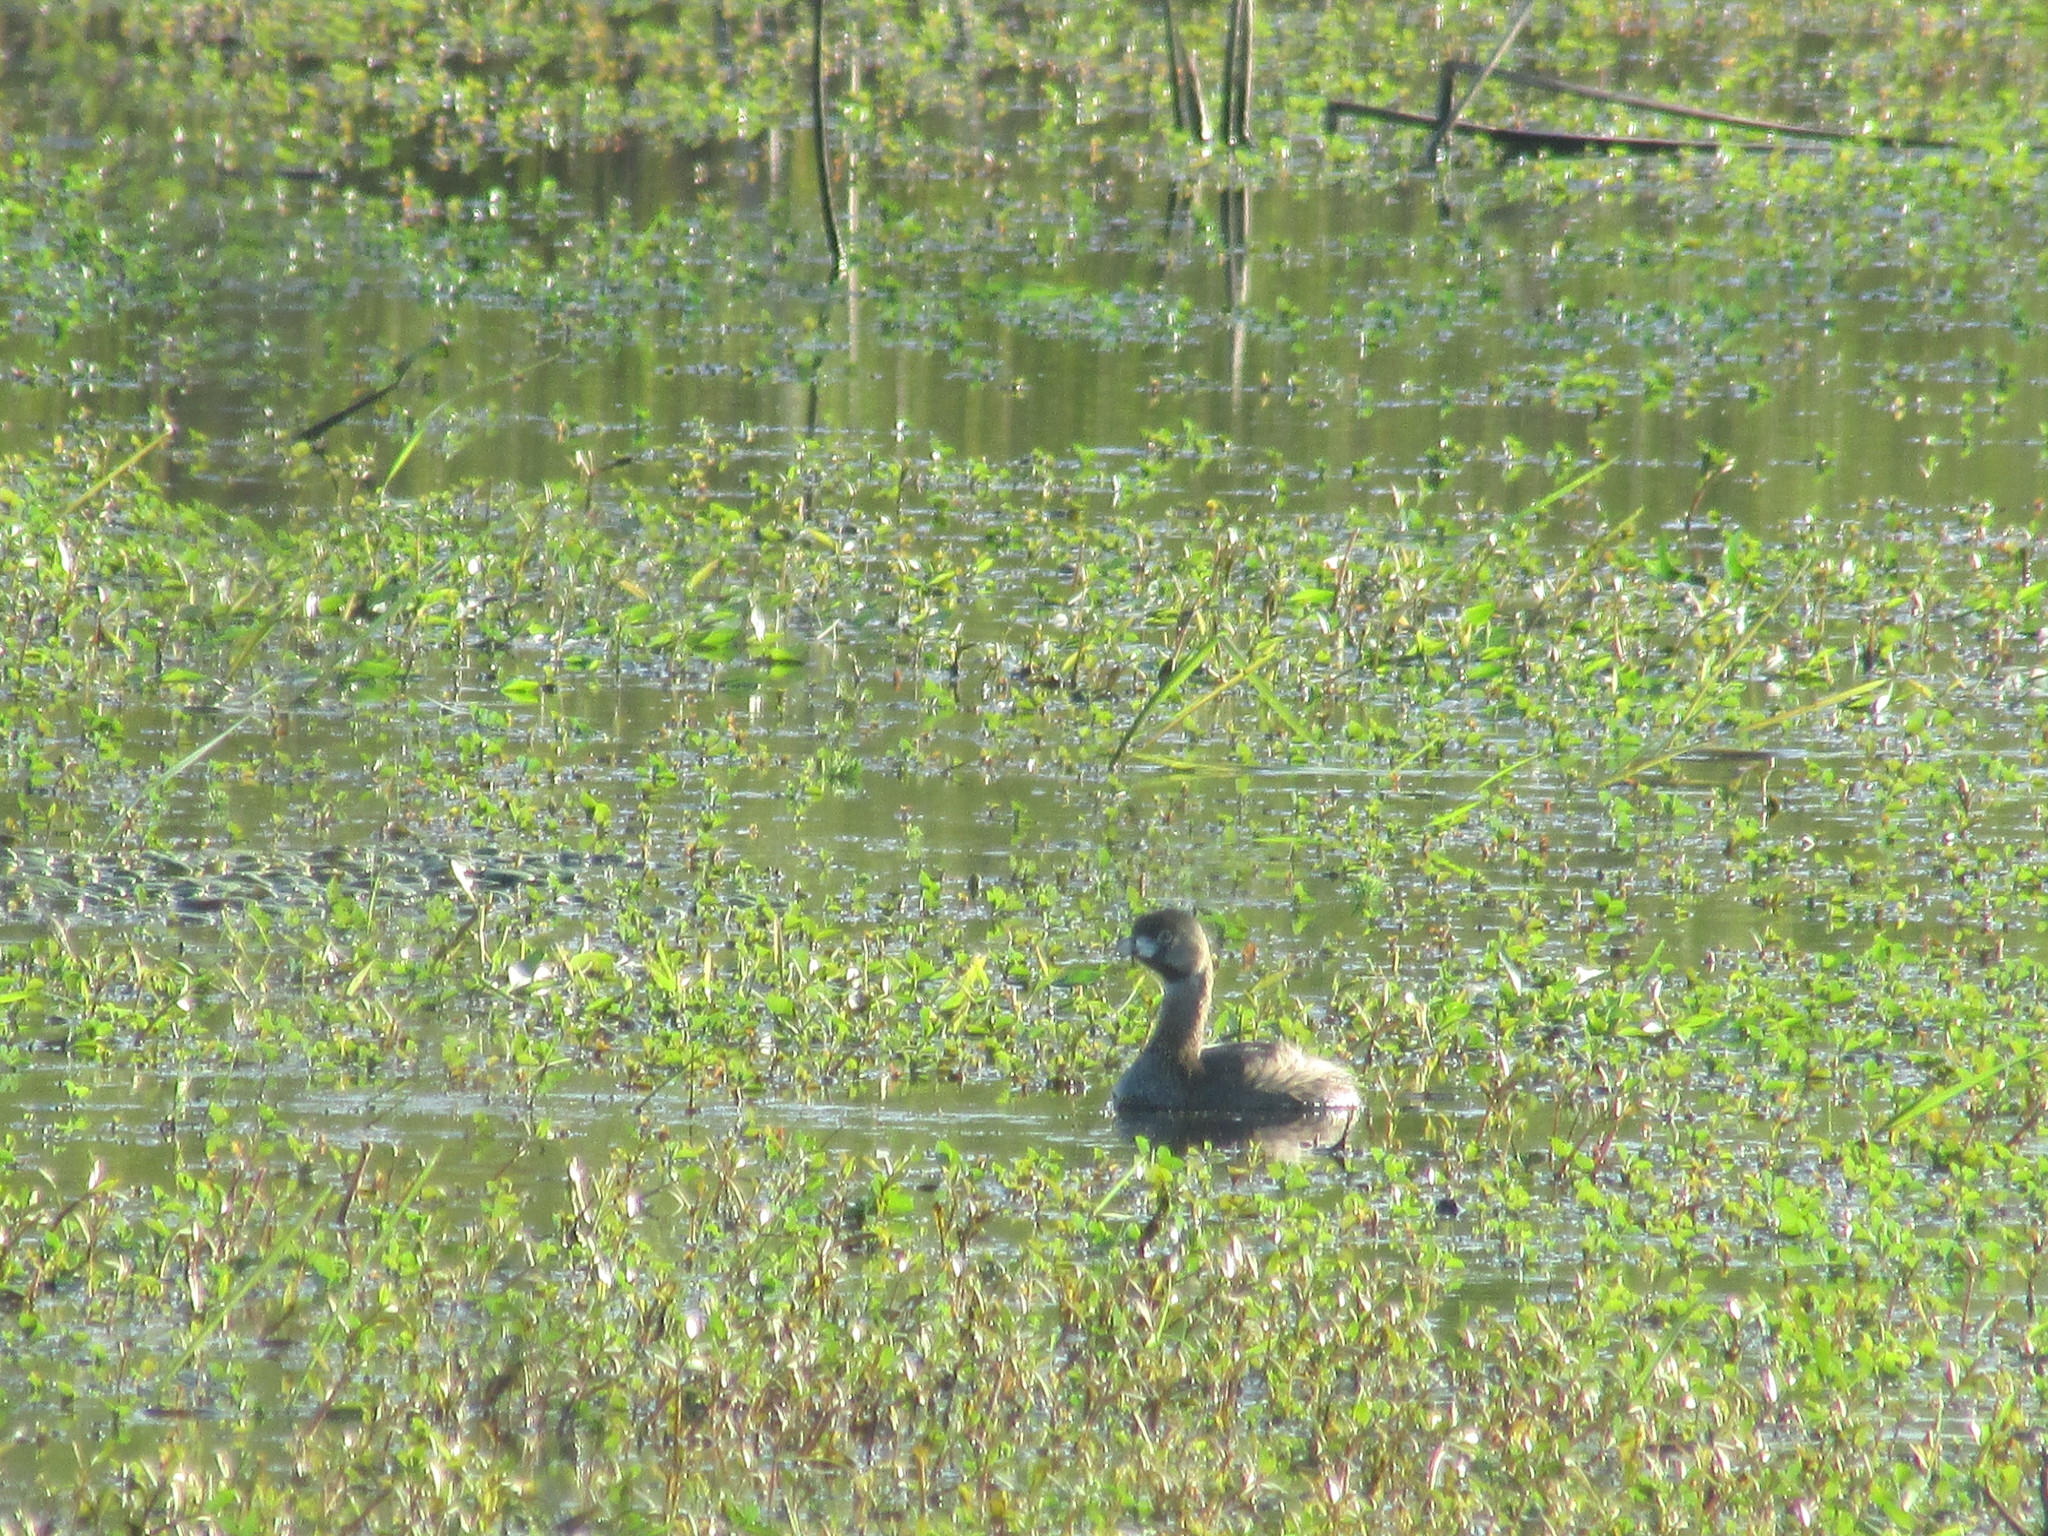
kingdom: Animalia
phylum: Chordata
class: Aves
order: Podicipediformes
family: Podicipedidae
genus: Podilymbus
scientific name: Podilymbus podiceps
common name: Pied-billed grebe
